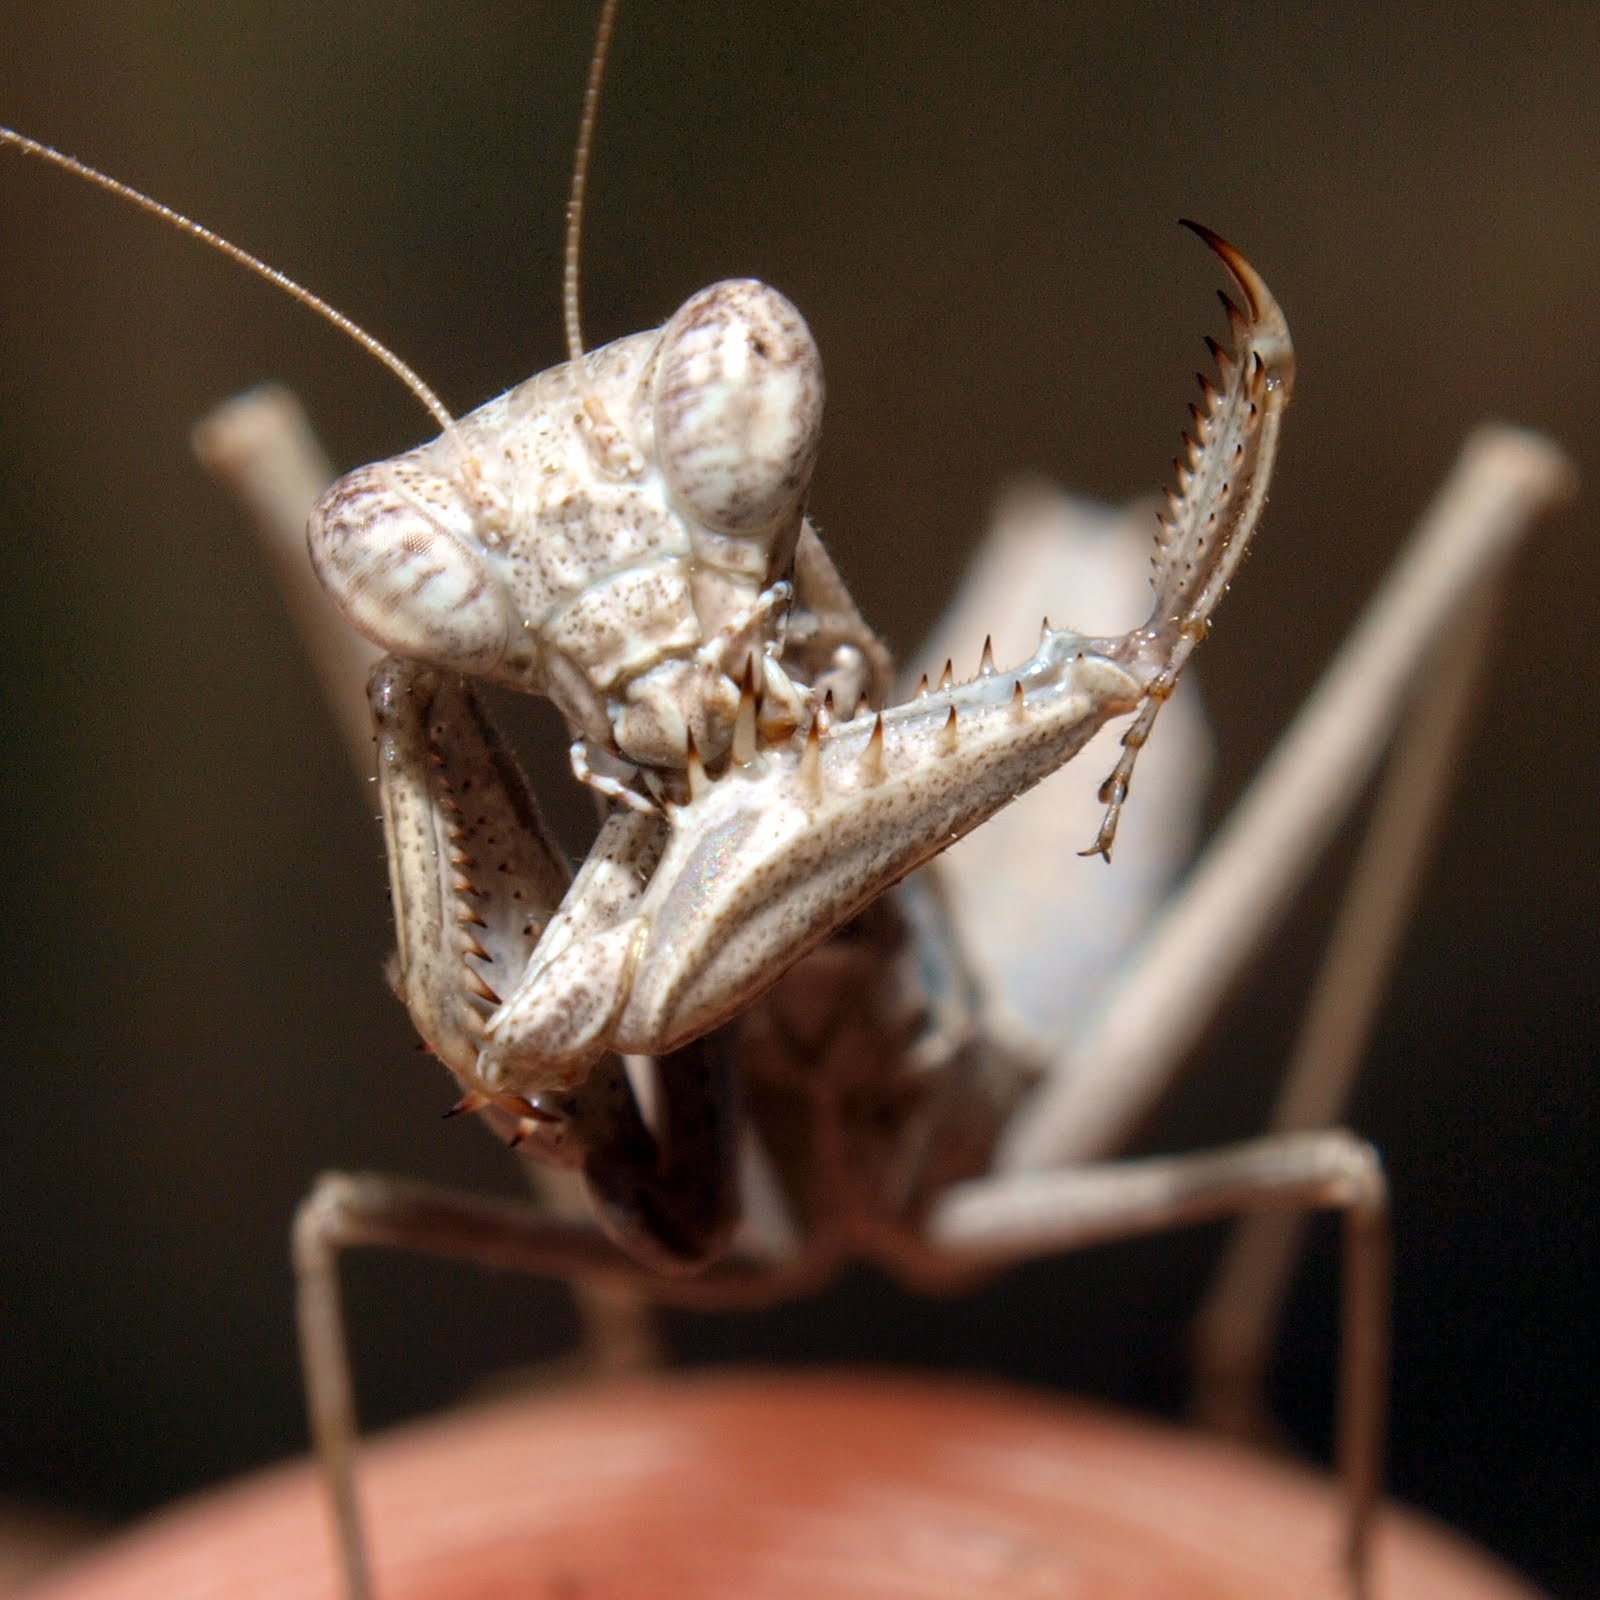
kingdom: Animalia
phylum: Arthropoda
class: Insecta
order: Mantodea
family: Amelidae
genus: Ameles
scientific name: Ameles decolor
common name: Dwarf mantis
